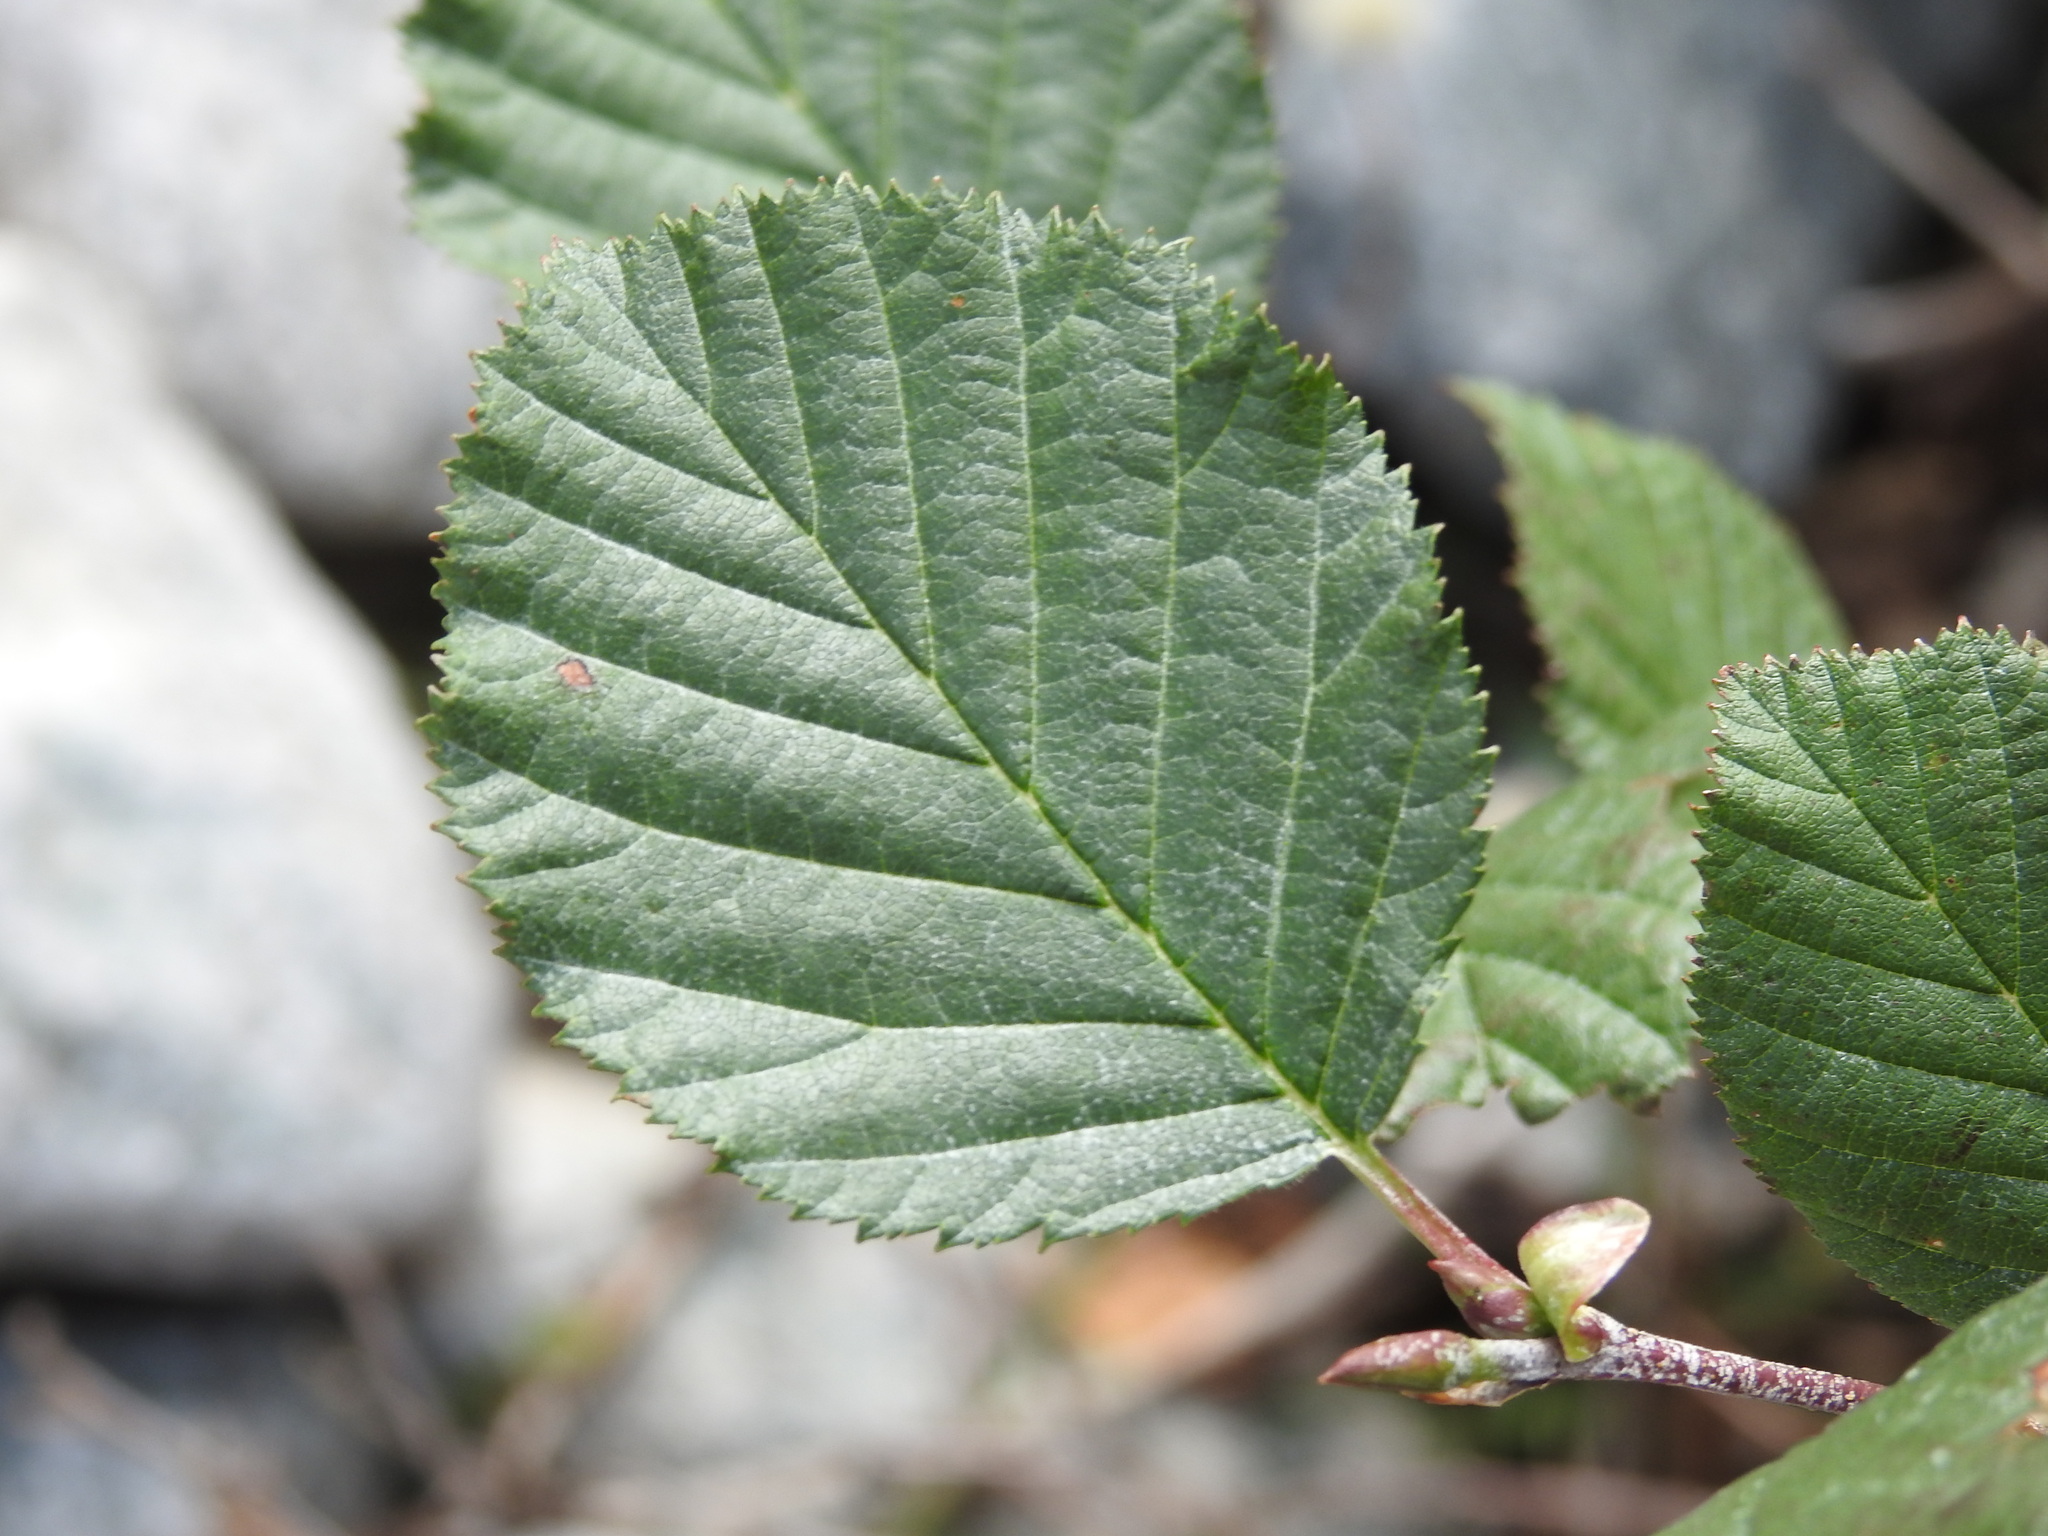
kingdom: Plantae
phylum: Tracheophyta
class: Magnoliopsida
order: Fagales
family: Betulaceae
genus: Alnus
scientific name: Alnus alnobetula
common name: Green alder
